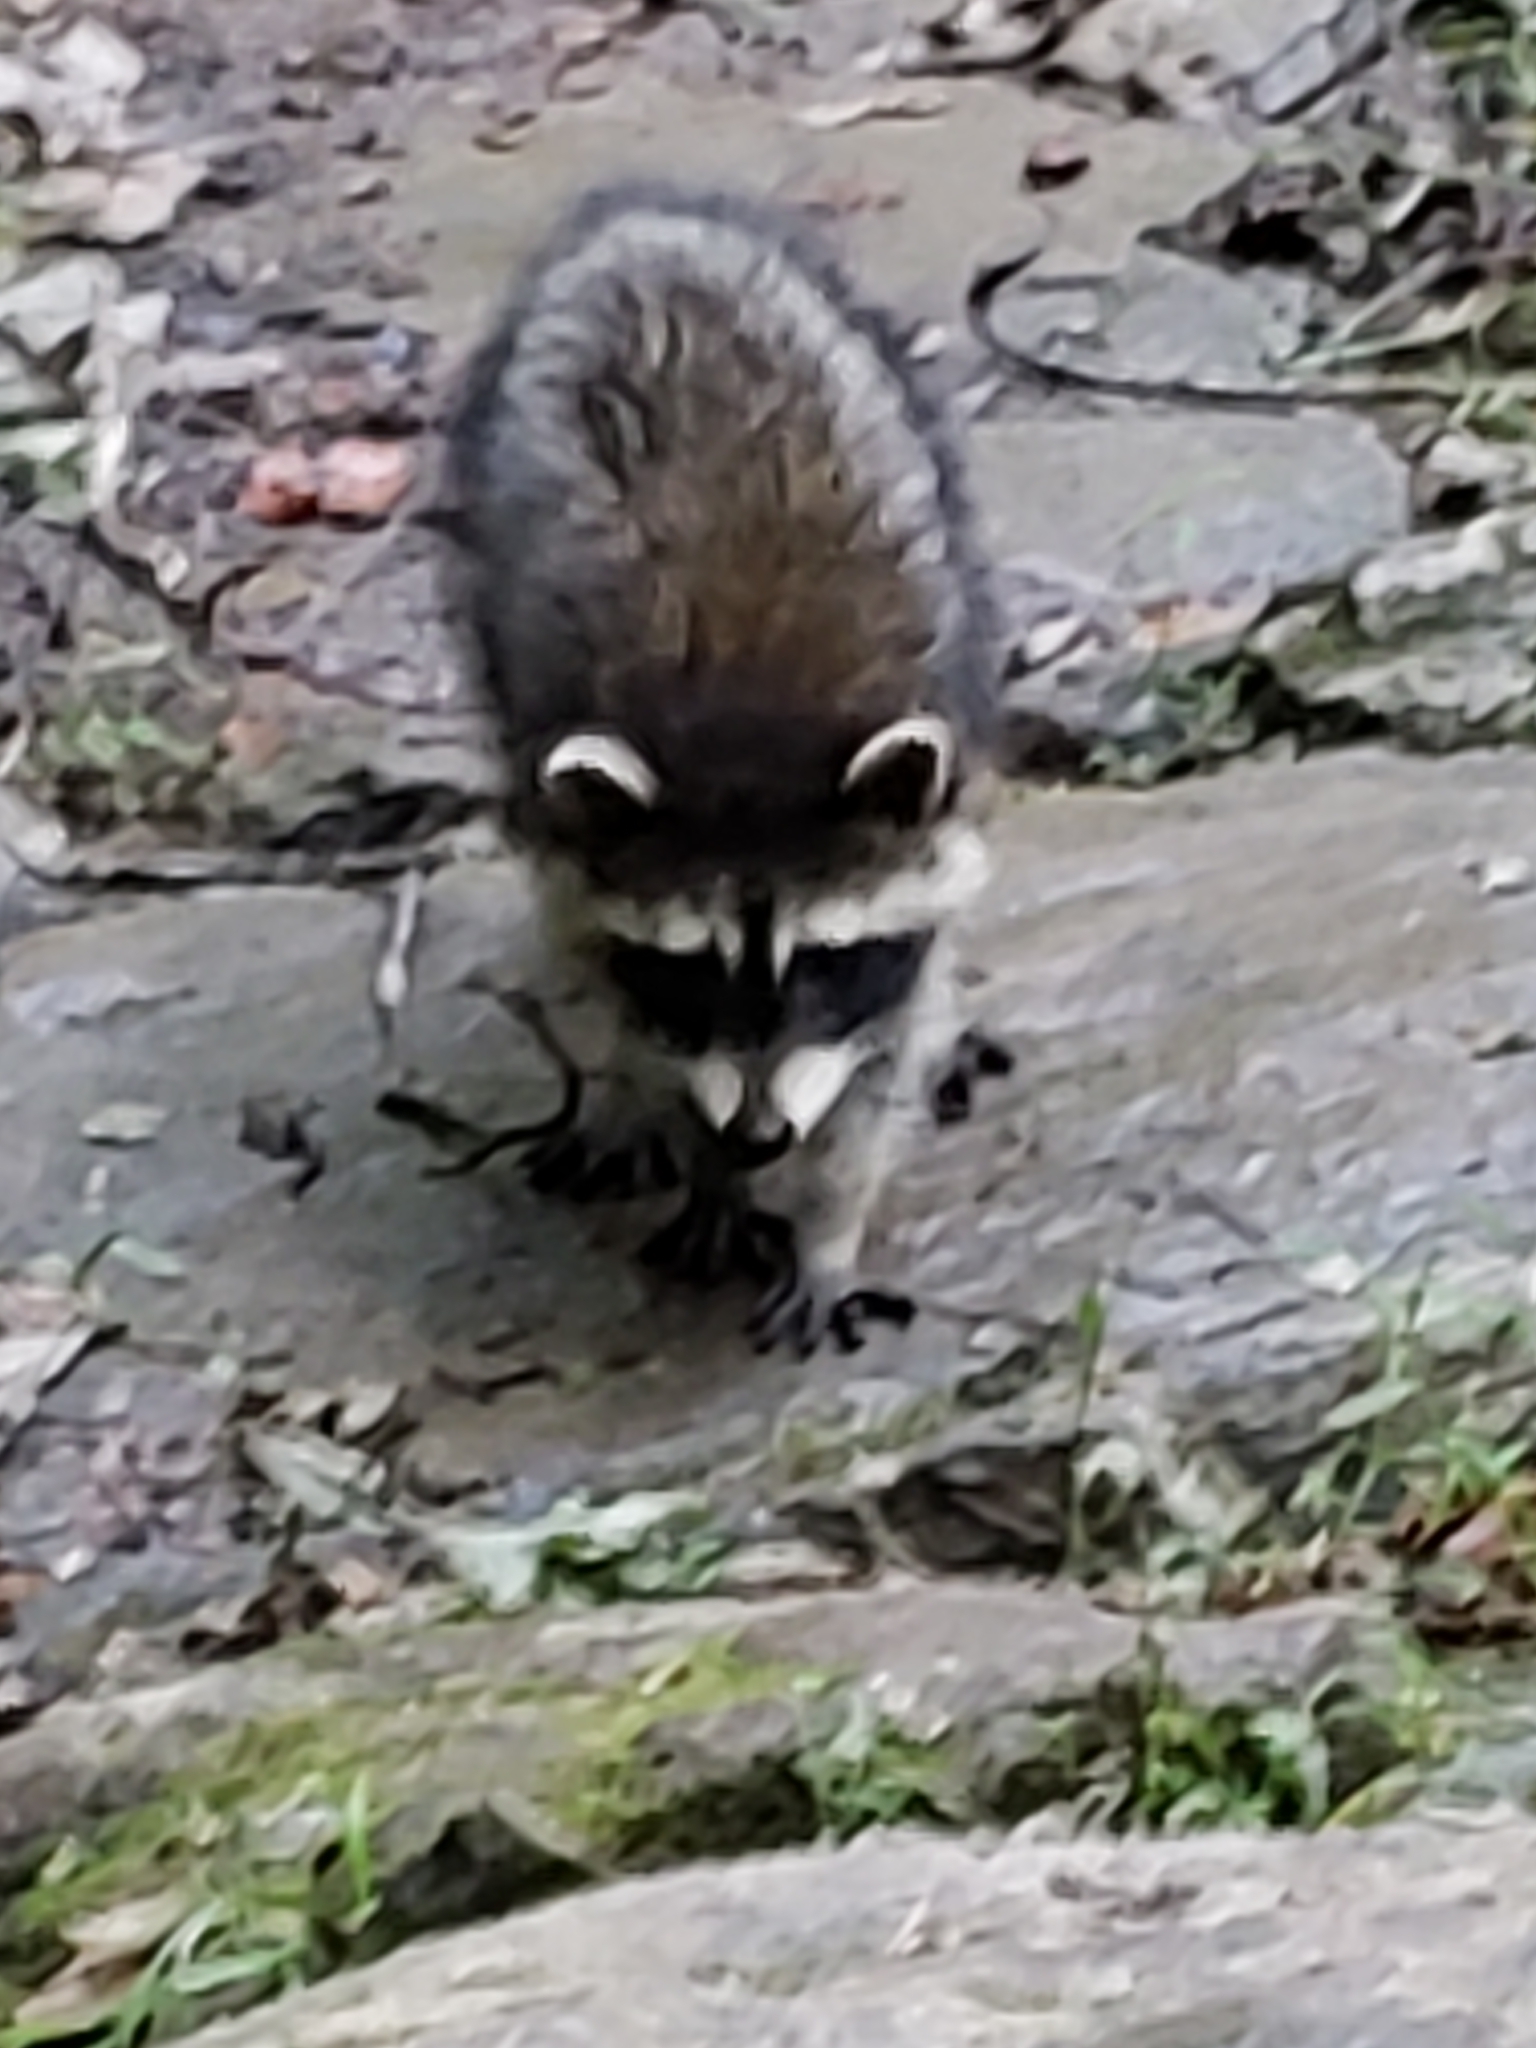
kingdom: Animalia
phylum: Chordata
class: Mammalia
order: Carnivora
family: Procyonidae
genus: Procyon
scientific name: Procyon lotor
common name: Raccoon
